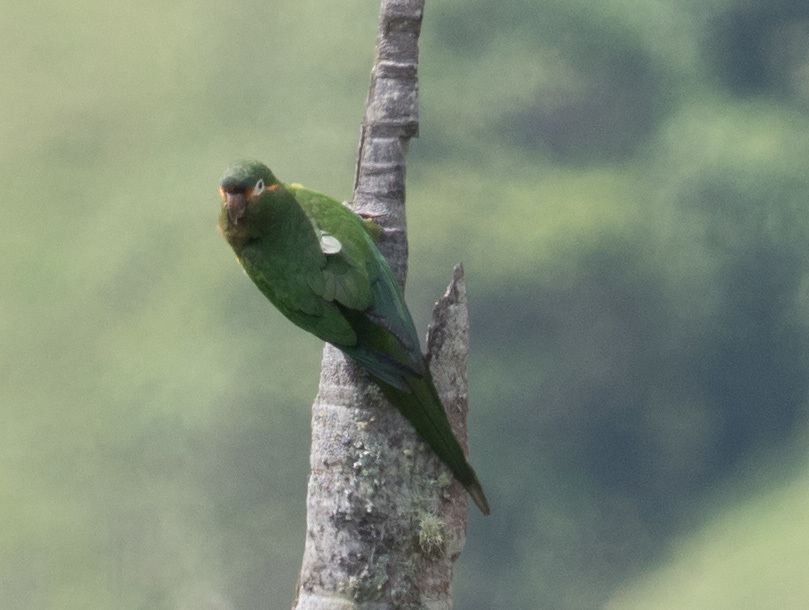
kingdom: Animalia
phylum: Chordata
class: Aves
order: Psittaciformes
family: Psittacidae
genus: Leptosittaca
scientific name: Leptosittaca branickii
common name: Golden-plumed parakeet
